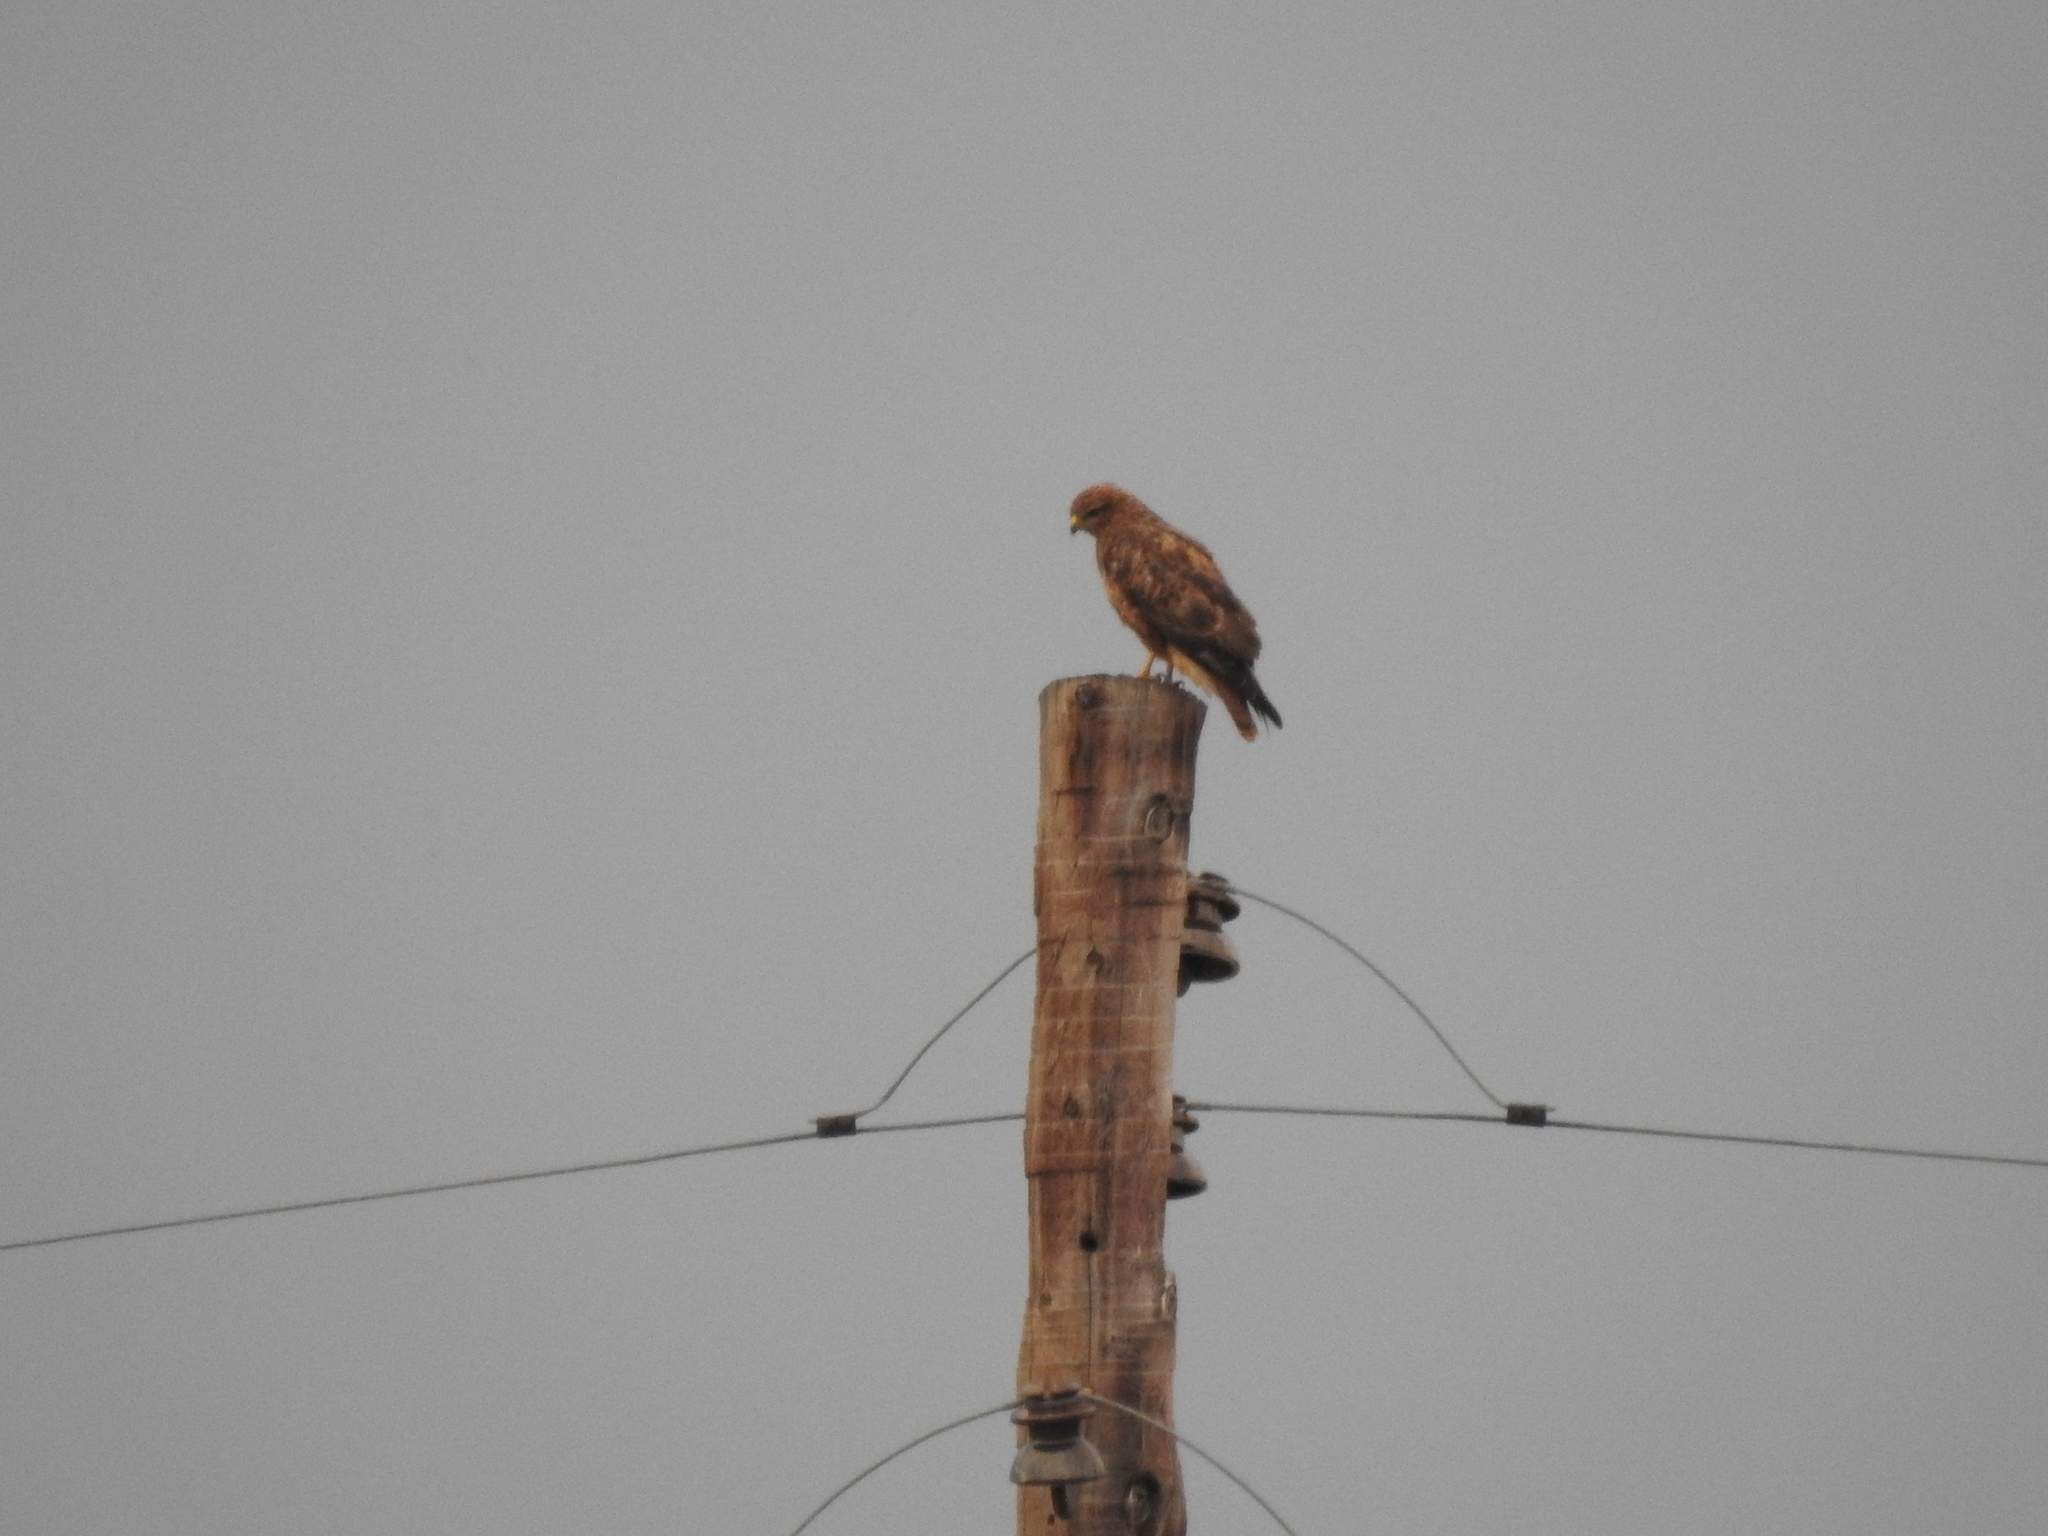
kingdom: Animalia
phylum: Chordata
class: Aves
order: Accipitriformes
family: Accipitridae
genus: Buteo
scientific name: Buteo buteo
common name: Common buzzard
